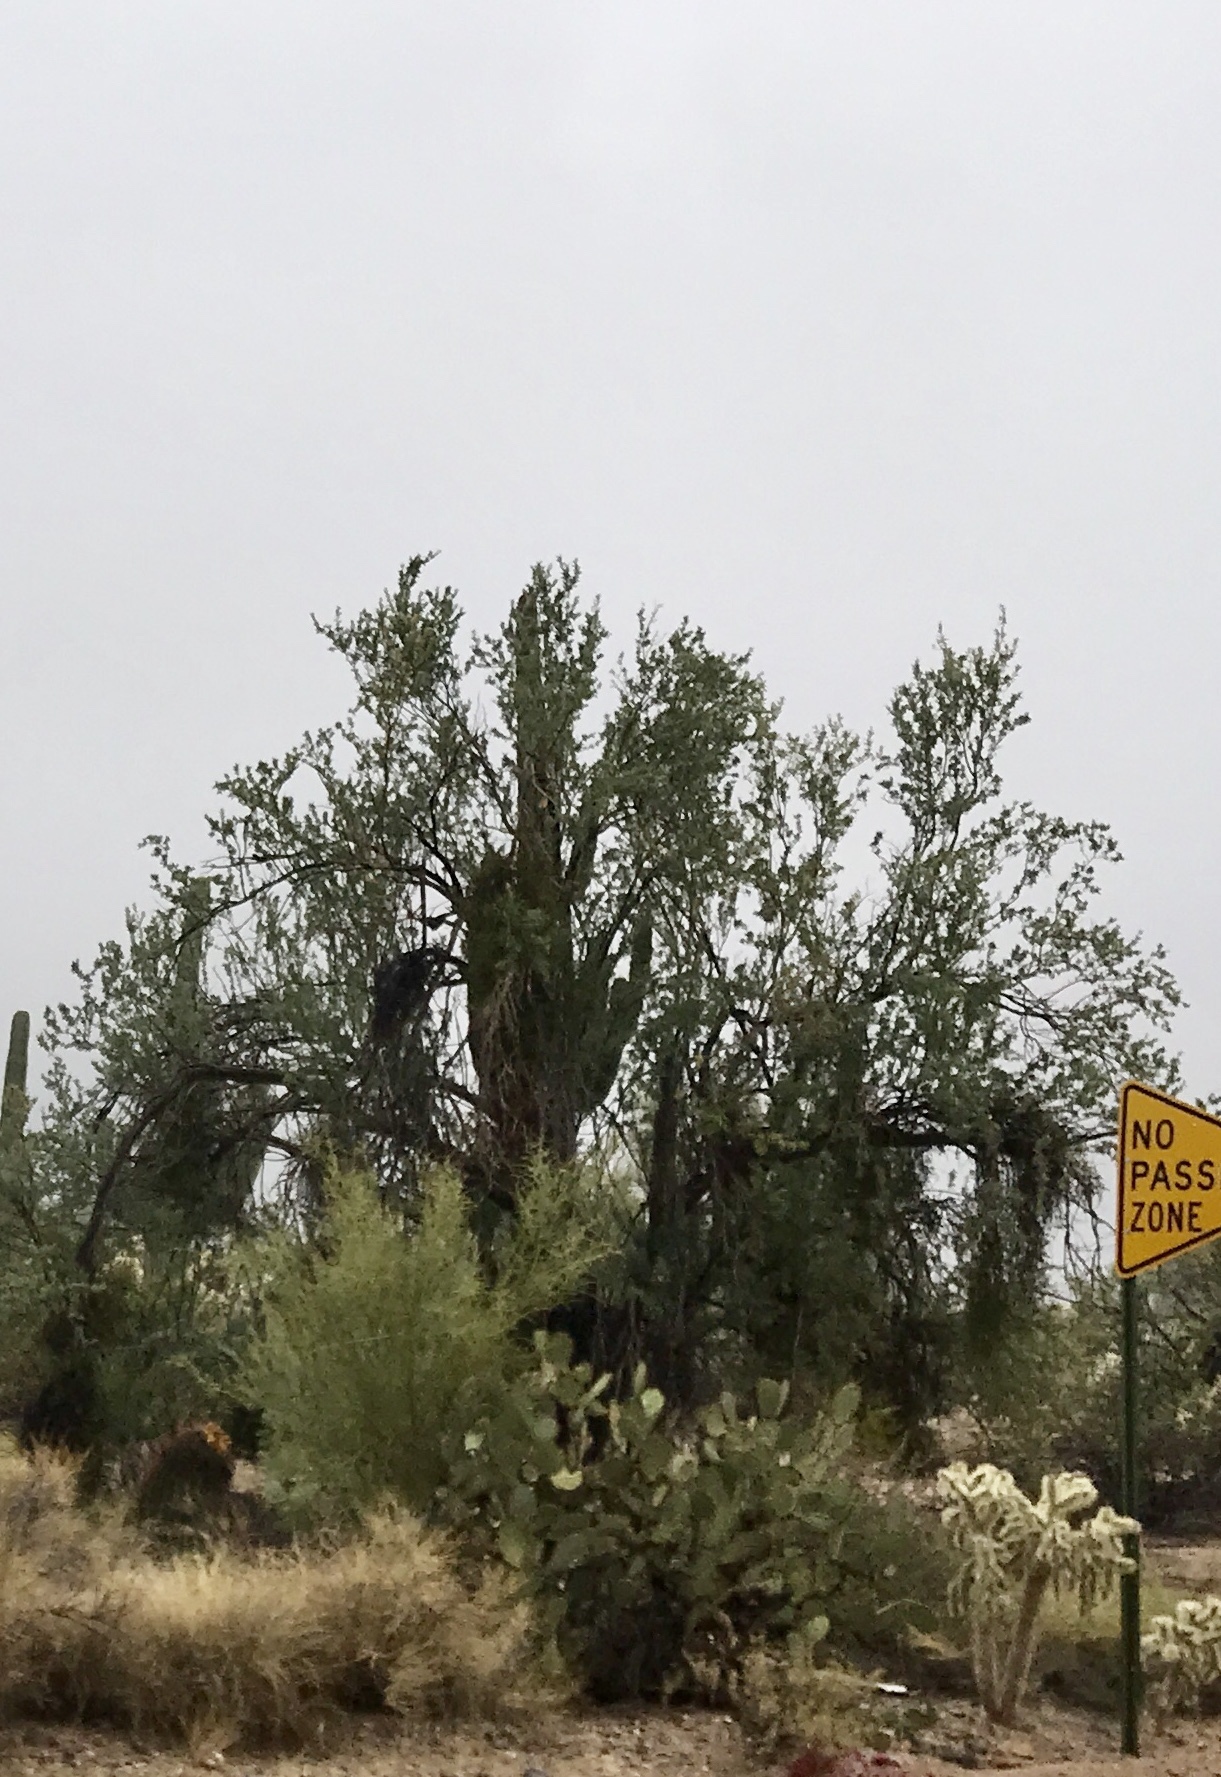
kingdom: Plantae
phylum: Tracheophyta
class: Magnoliopsida
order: Fabales
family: Fabaceae
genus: Olneya
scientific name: Olneya tesota
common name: Desert ironwood
